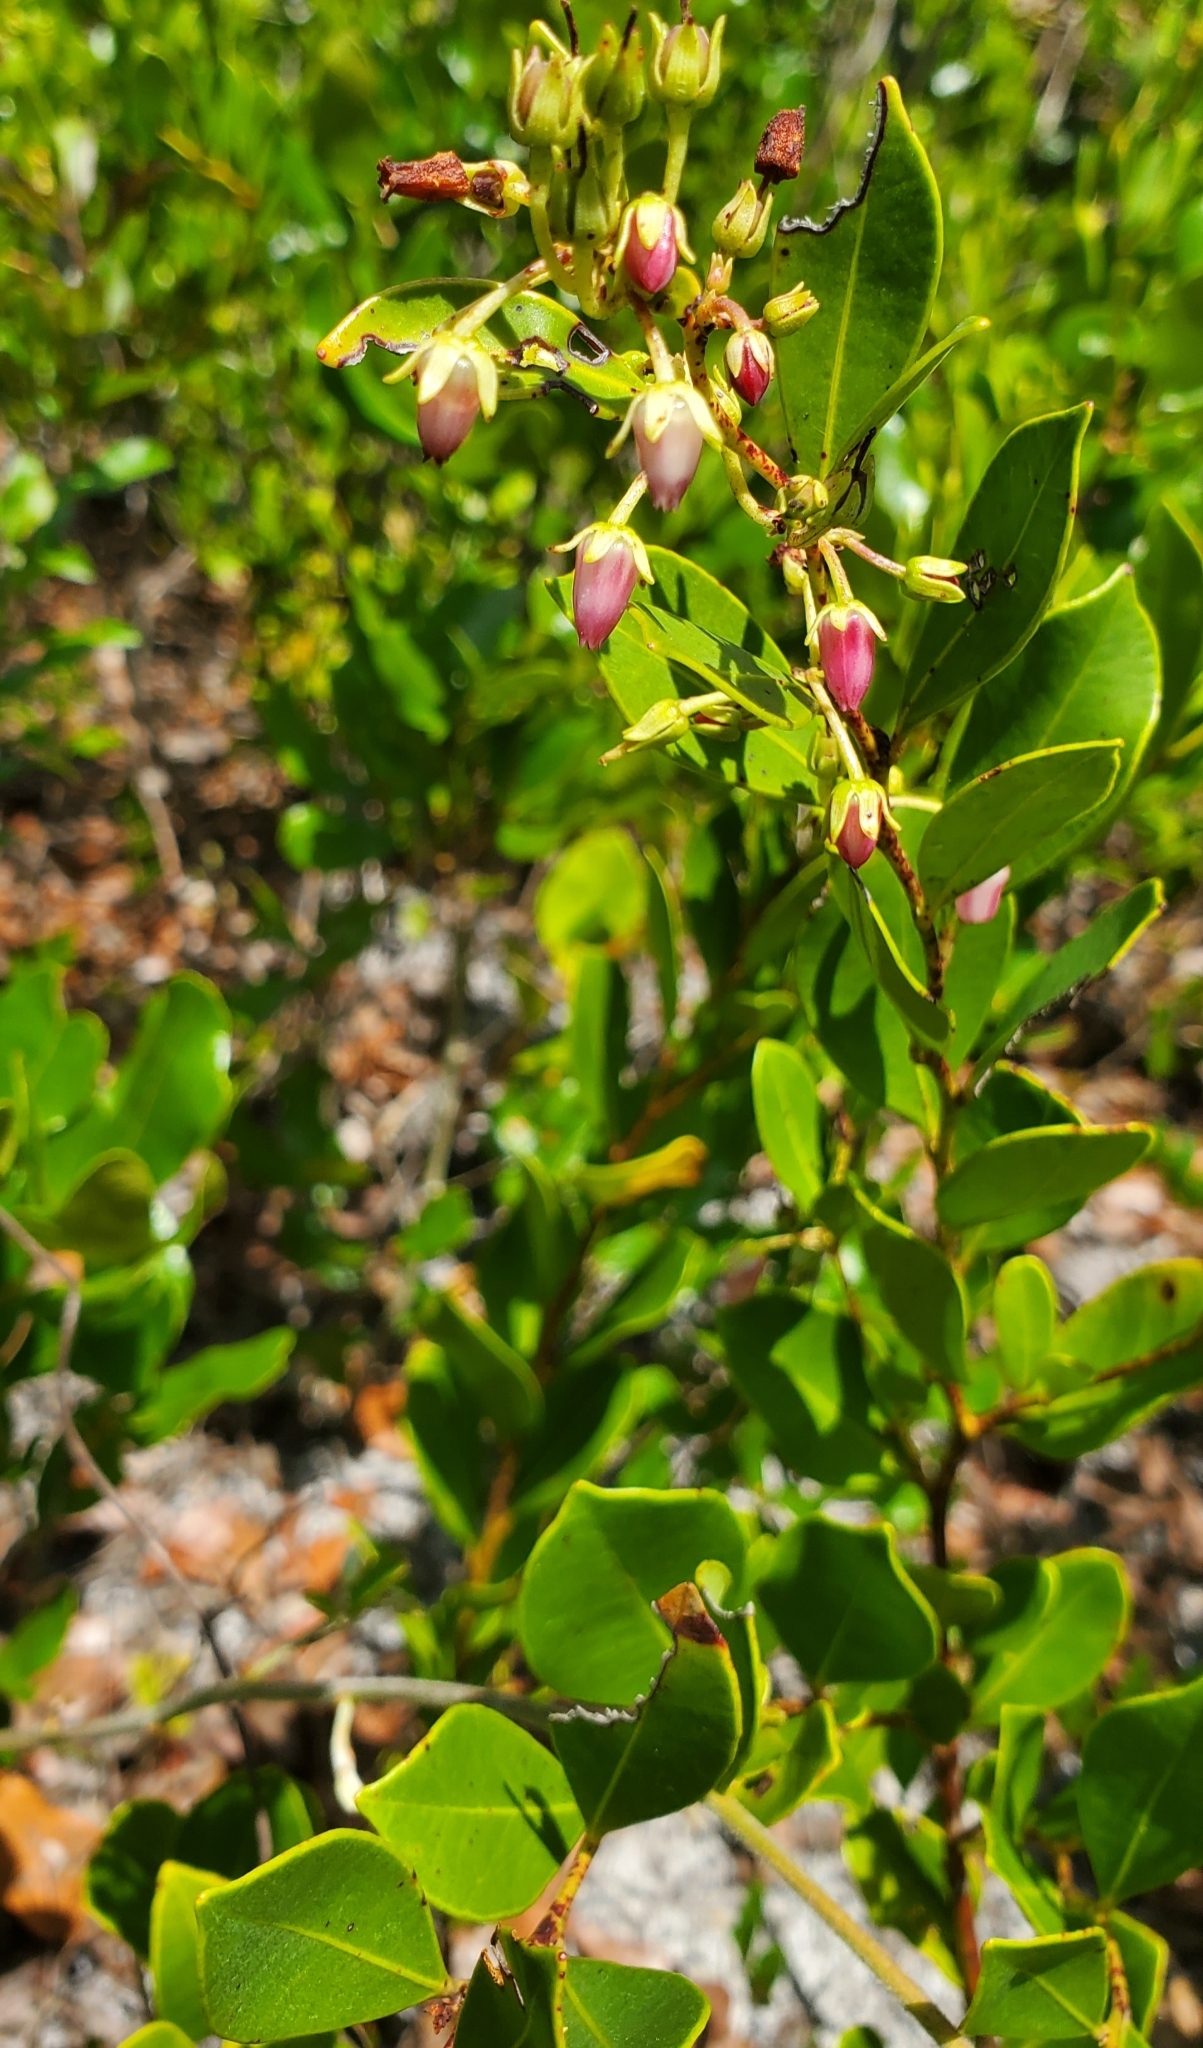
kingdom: Plantae
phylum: Tracheophyta
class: Magnoliopsida
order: Ericales
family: Ericaceae
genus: Lyonia
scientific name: Lyonia lucida
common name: Fetterbush
